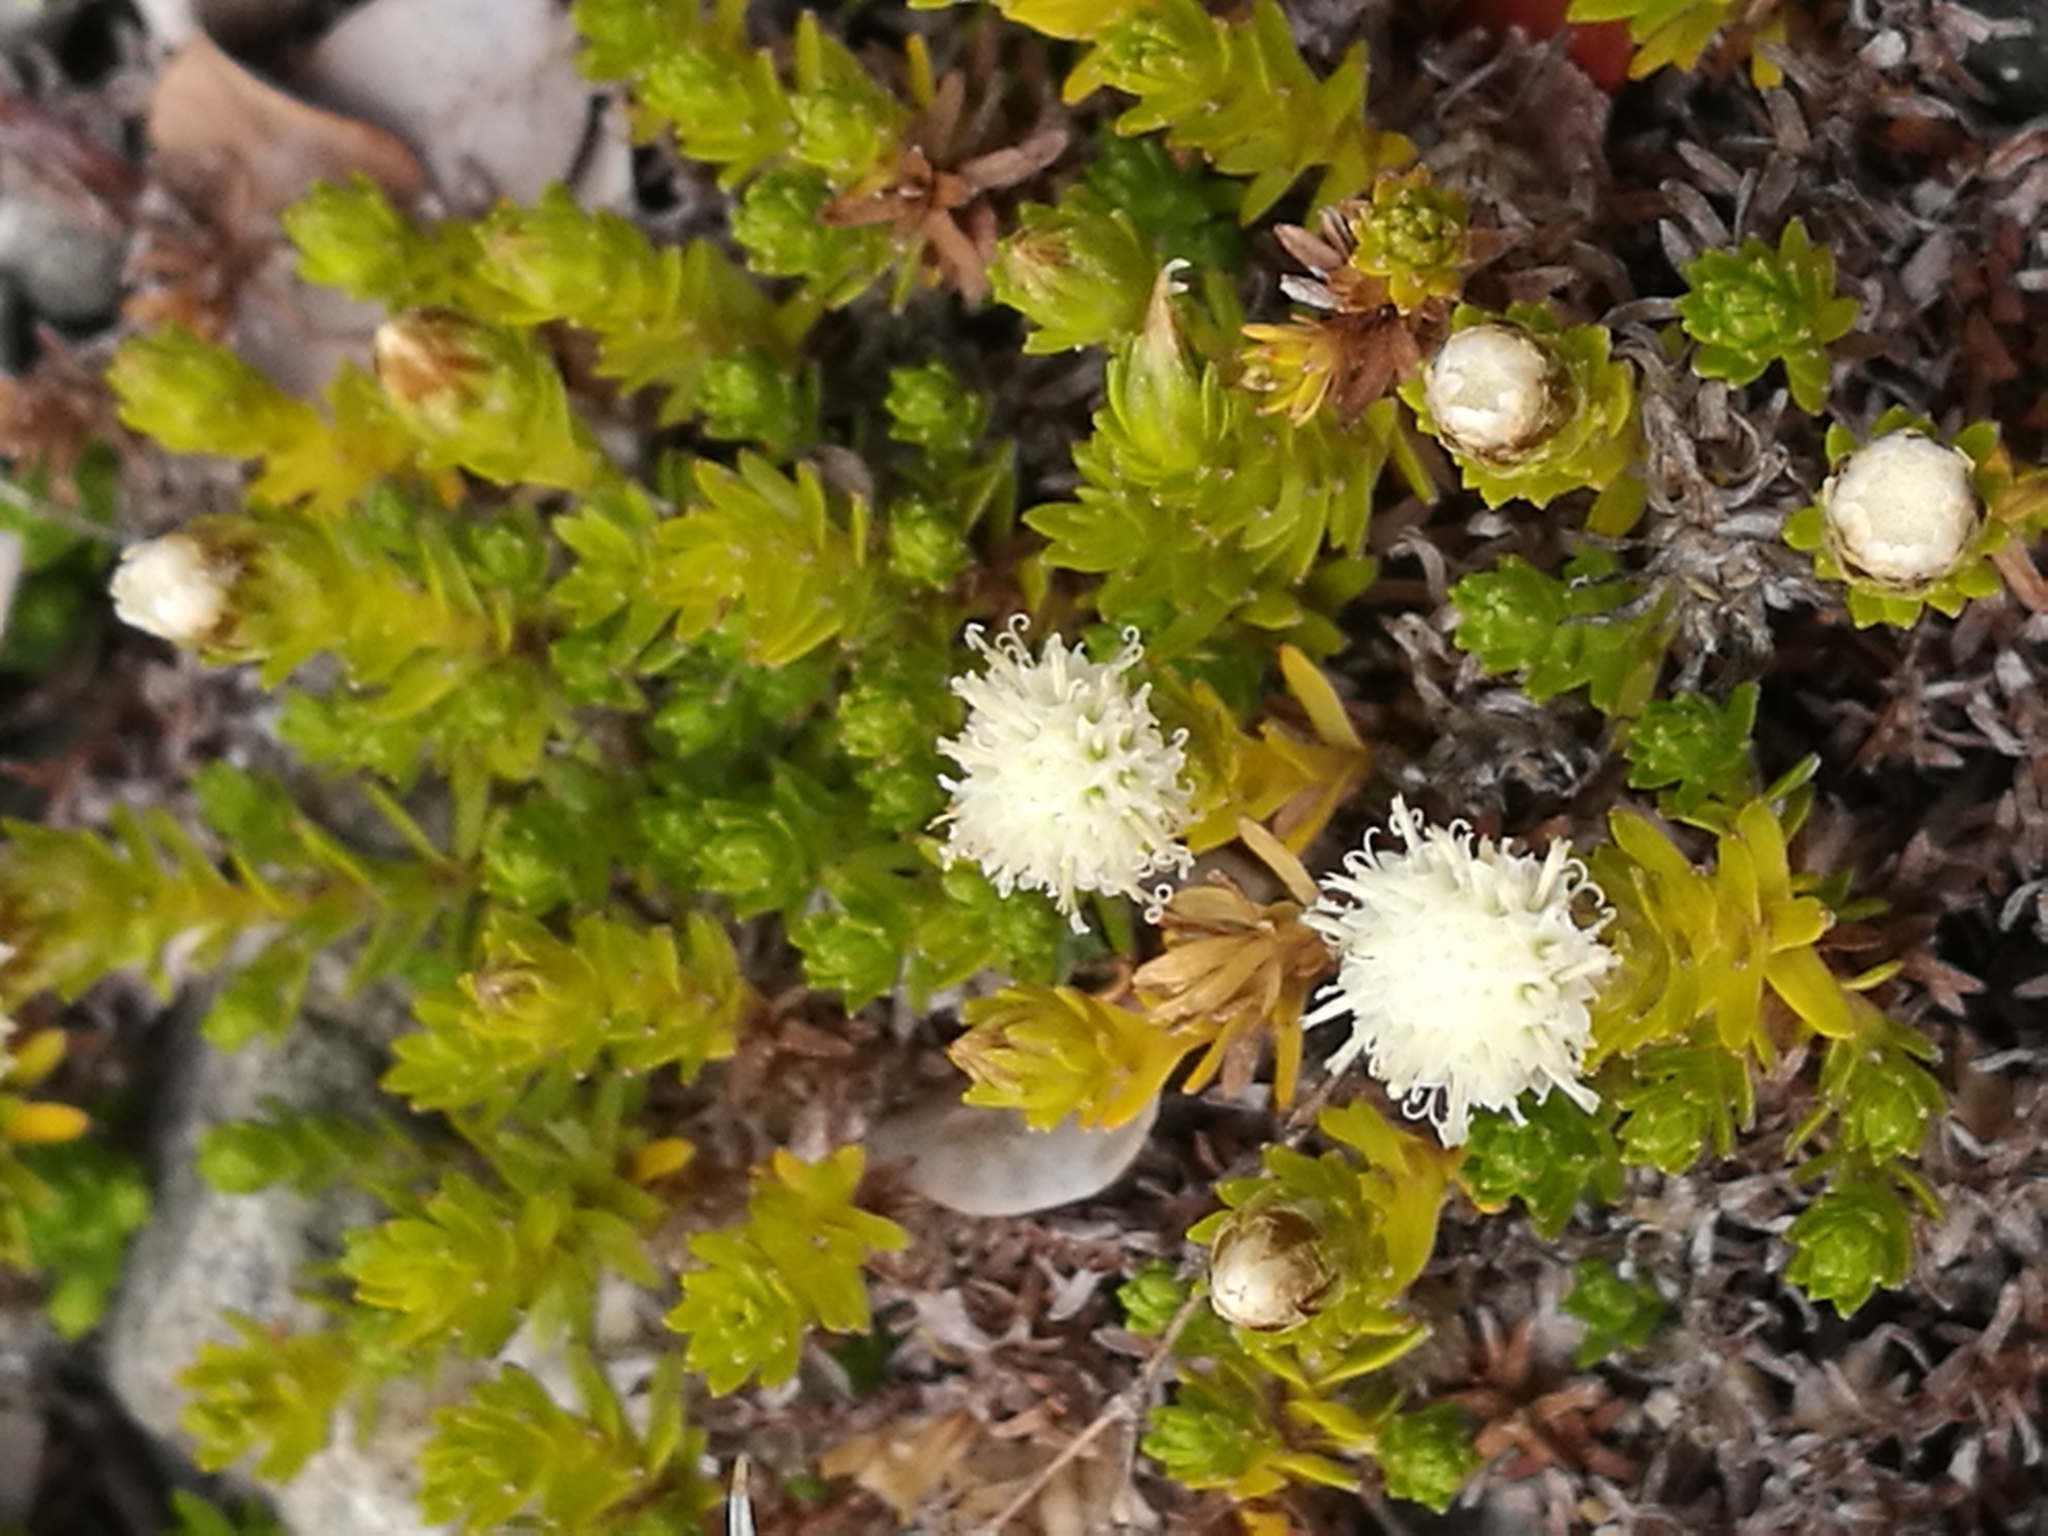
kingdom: Plantae
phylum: Tracheophyta
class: Magnoliopsida
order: Asterales
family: Asteraceae
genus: Raoulia
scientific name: Raoulia glabra
